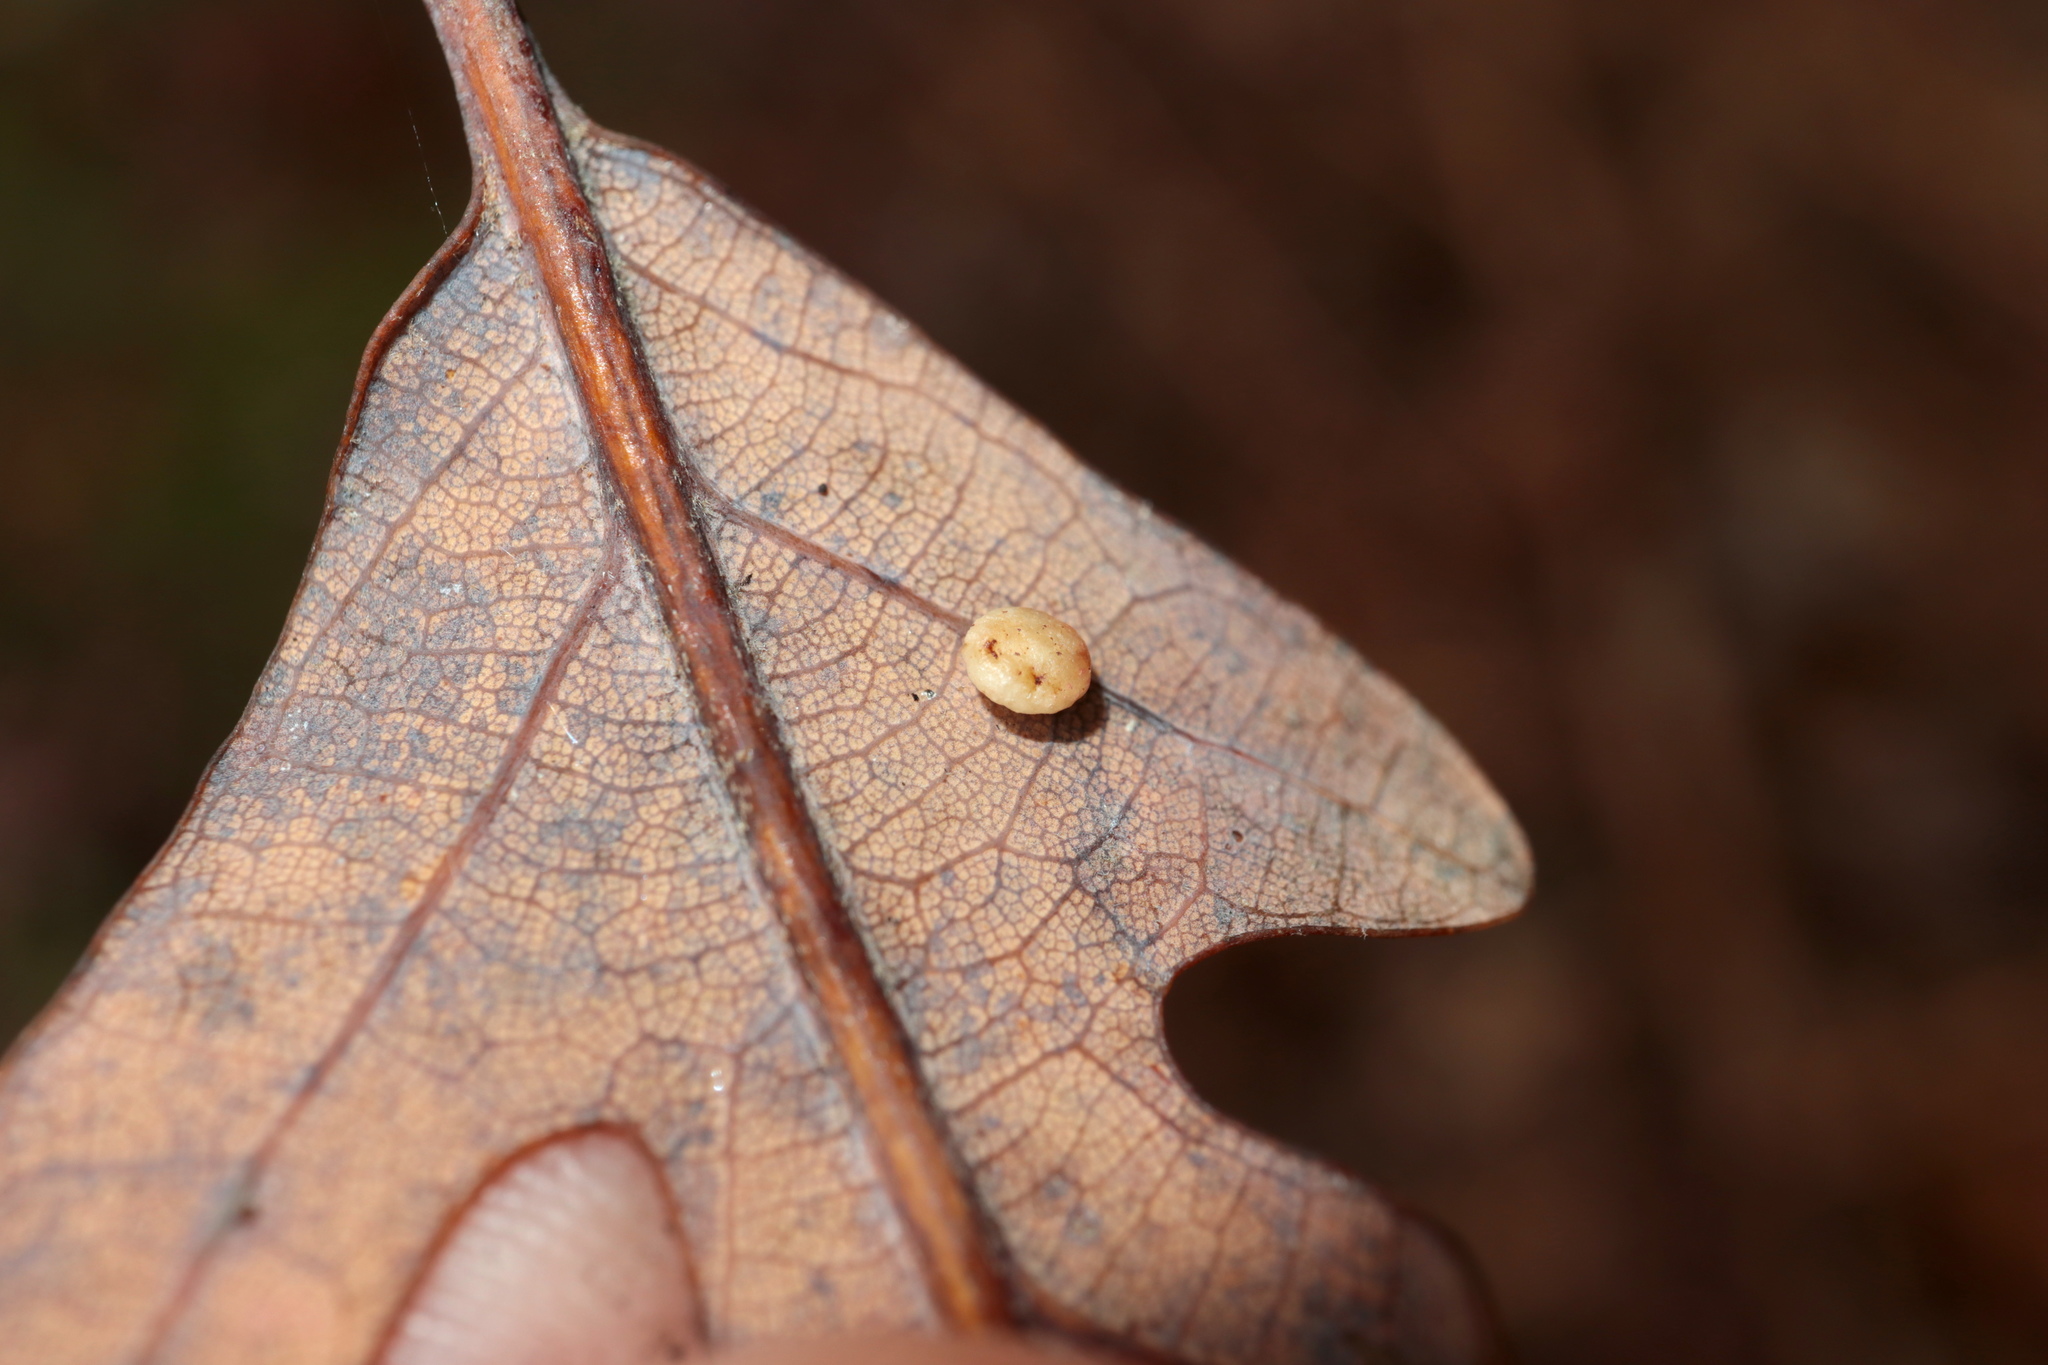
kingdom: Animalia
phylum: Arthropoda
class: Insecta
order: Hymenoptera
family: Cynipidae
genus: Phylloteras
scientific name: Phylloteras
